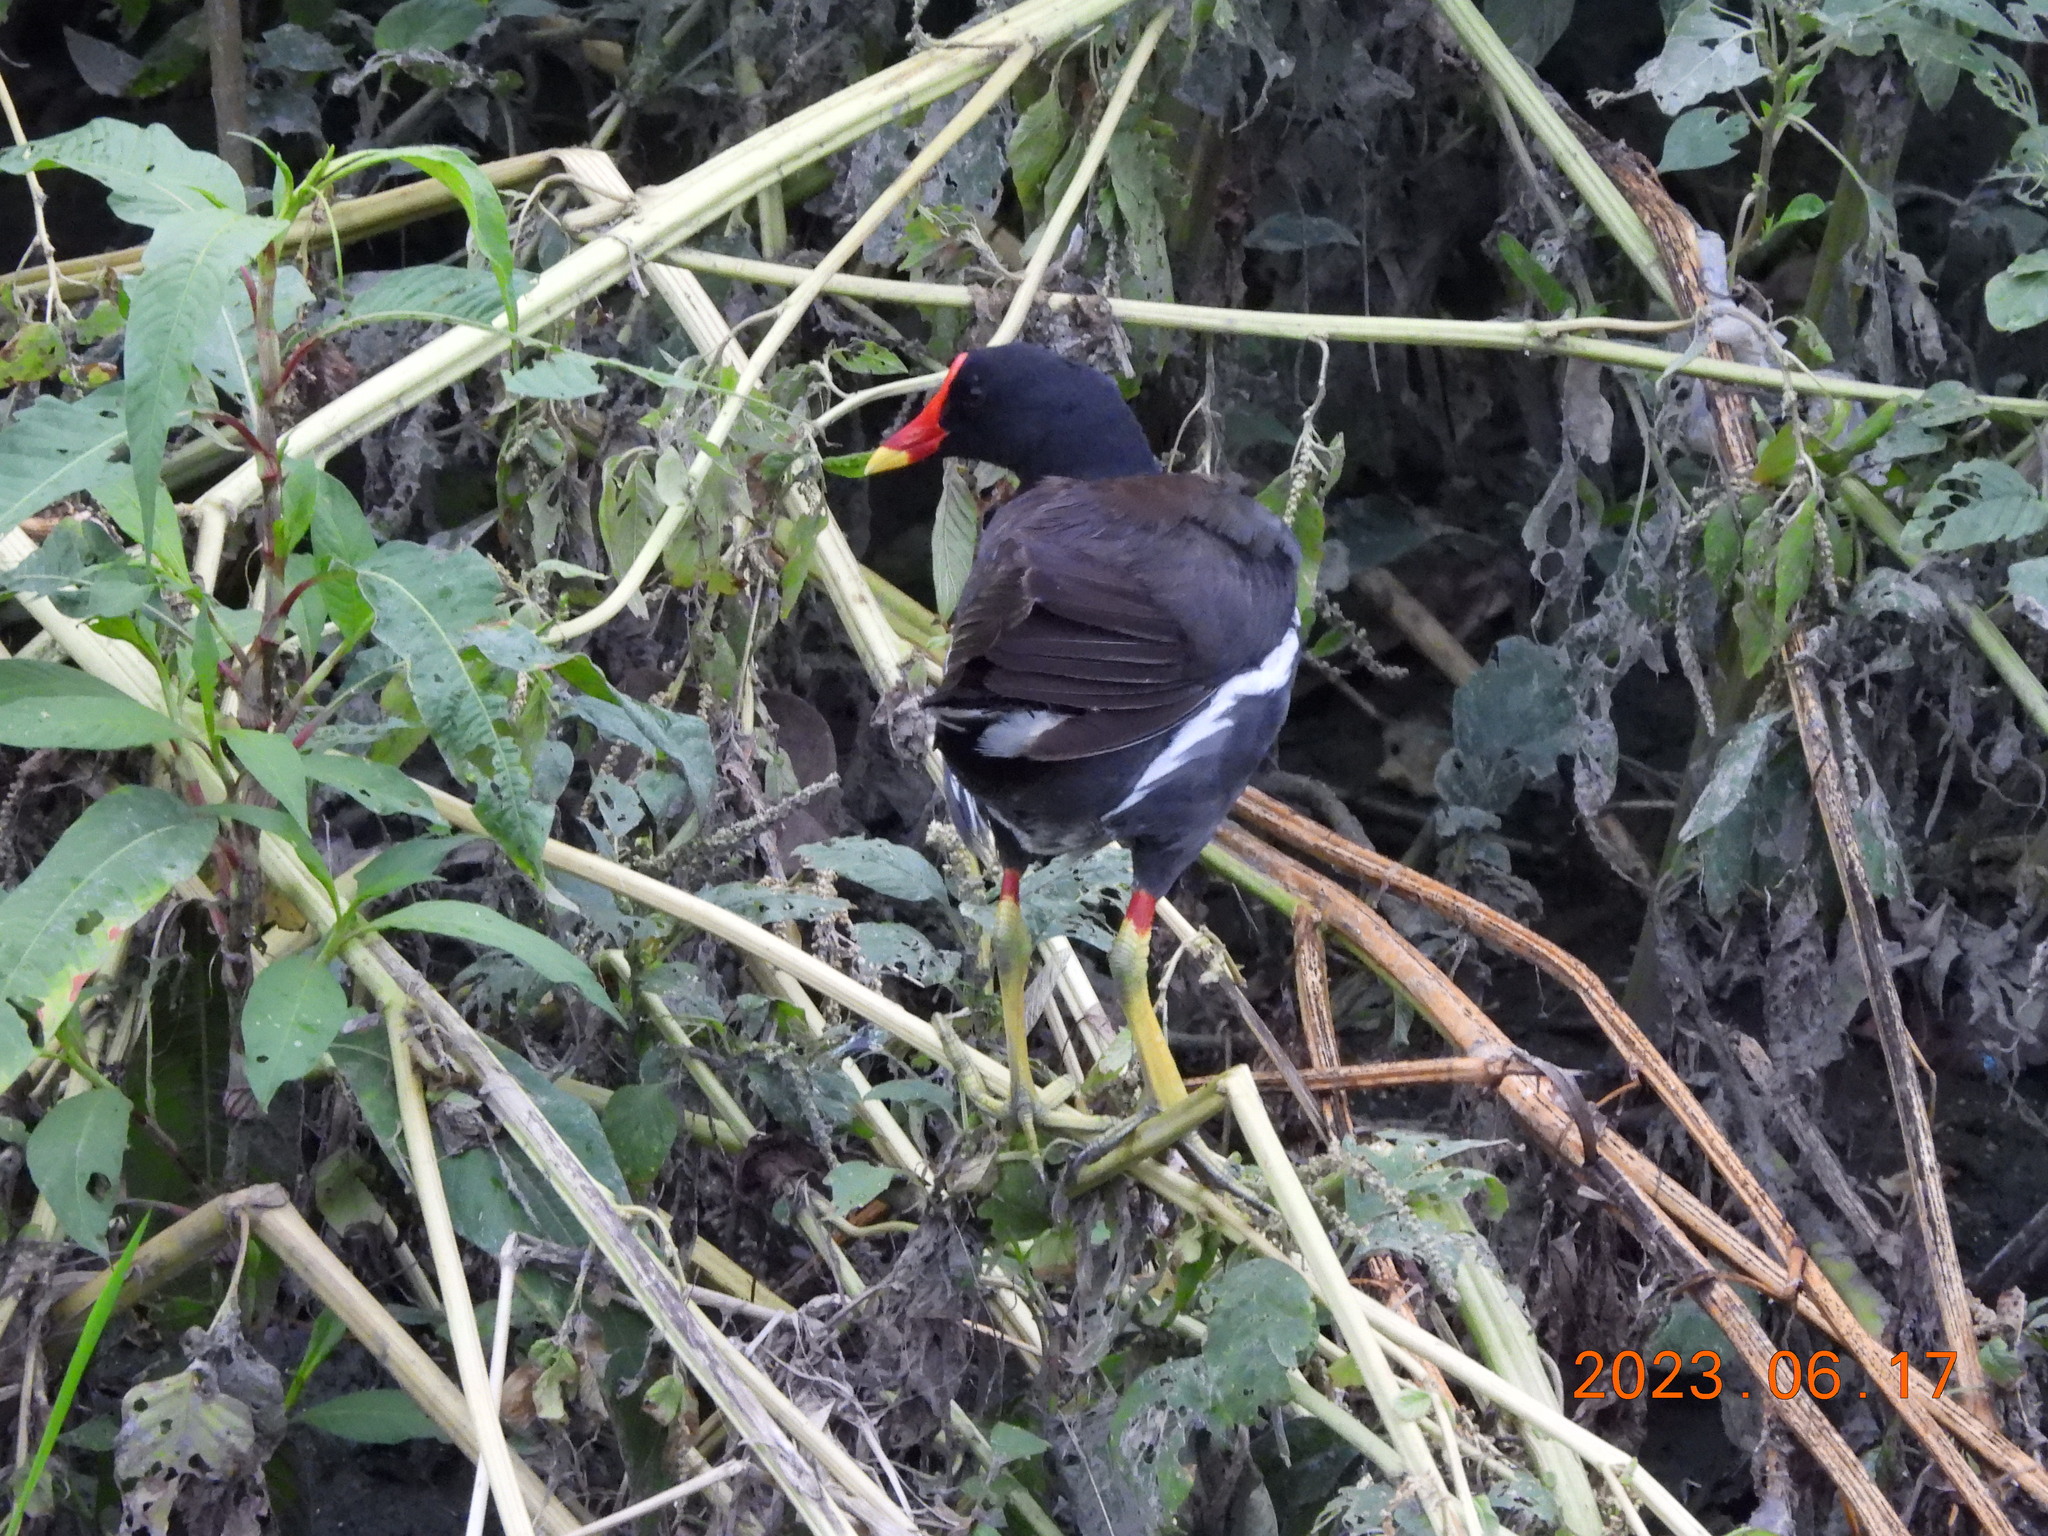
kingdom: Animalia
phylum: Chordata
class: Aves
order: Gruiformes
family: Rallidae
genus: Gallinula
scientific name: Gallinula chloropus
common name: Common moorhen
